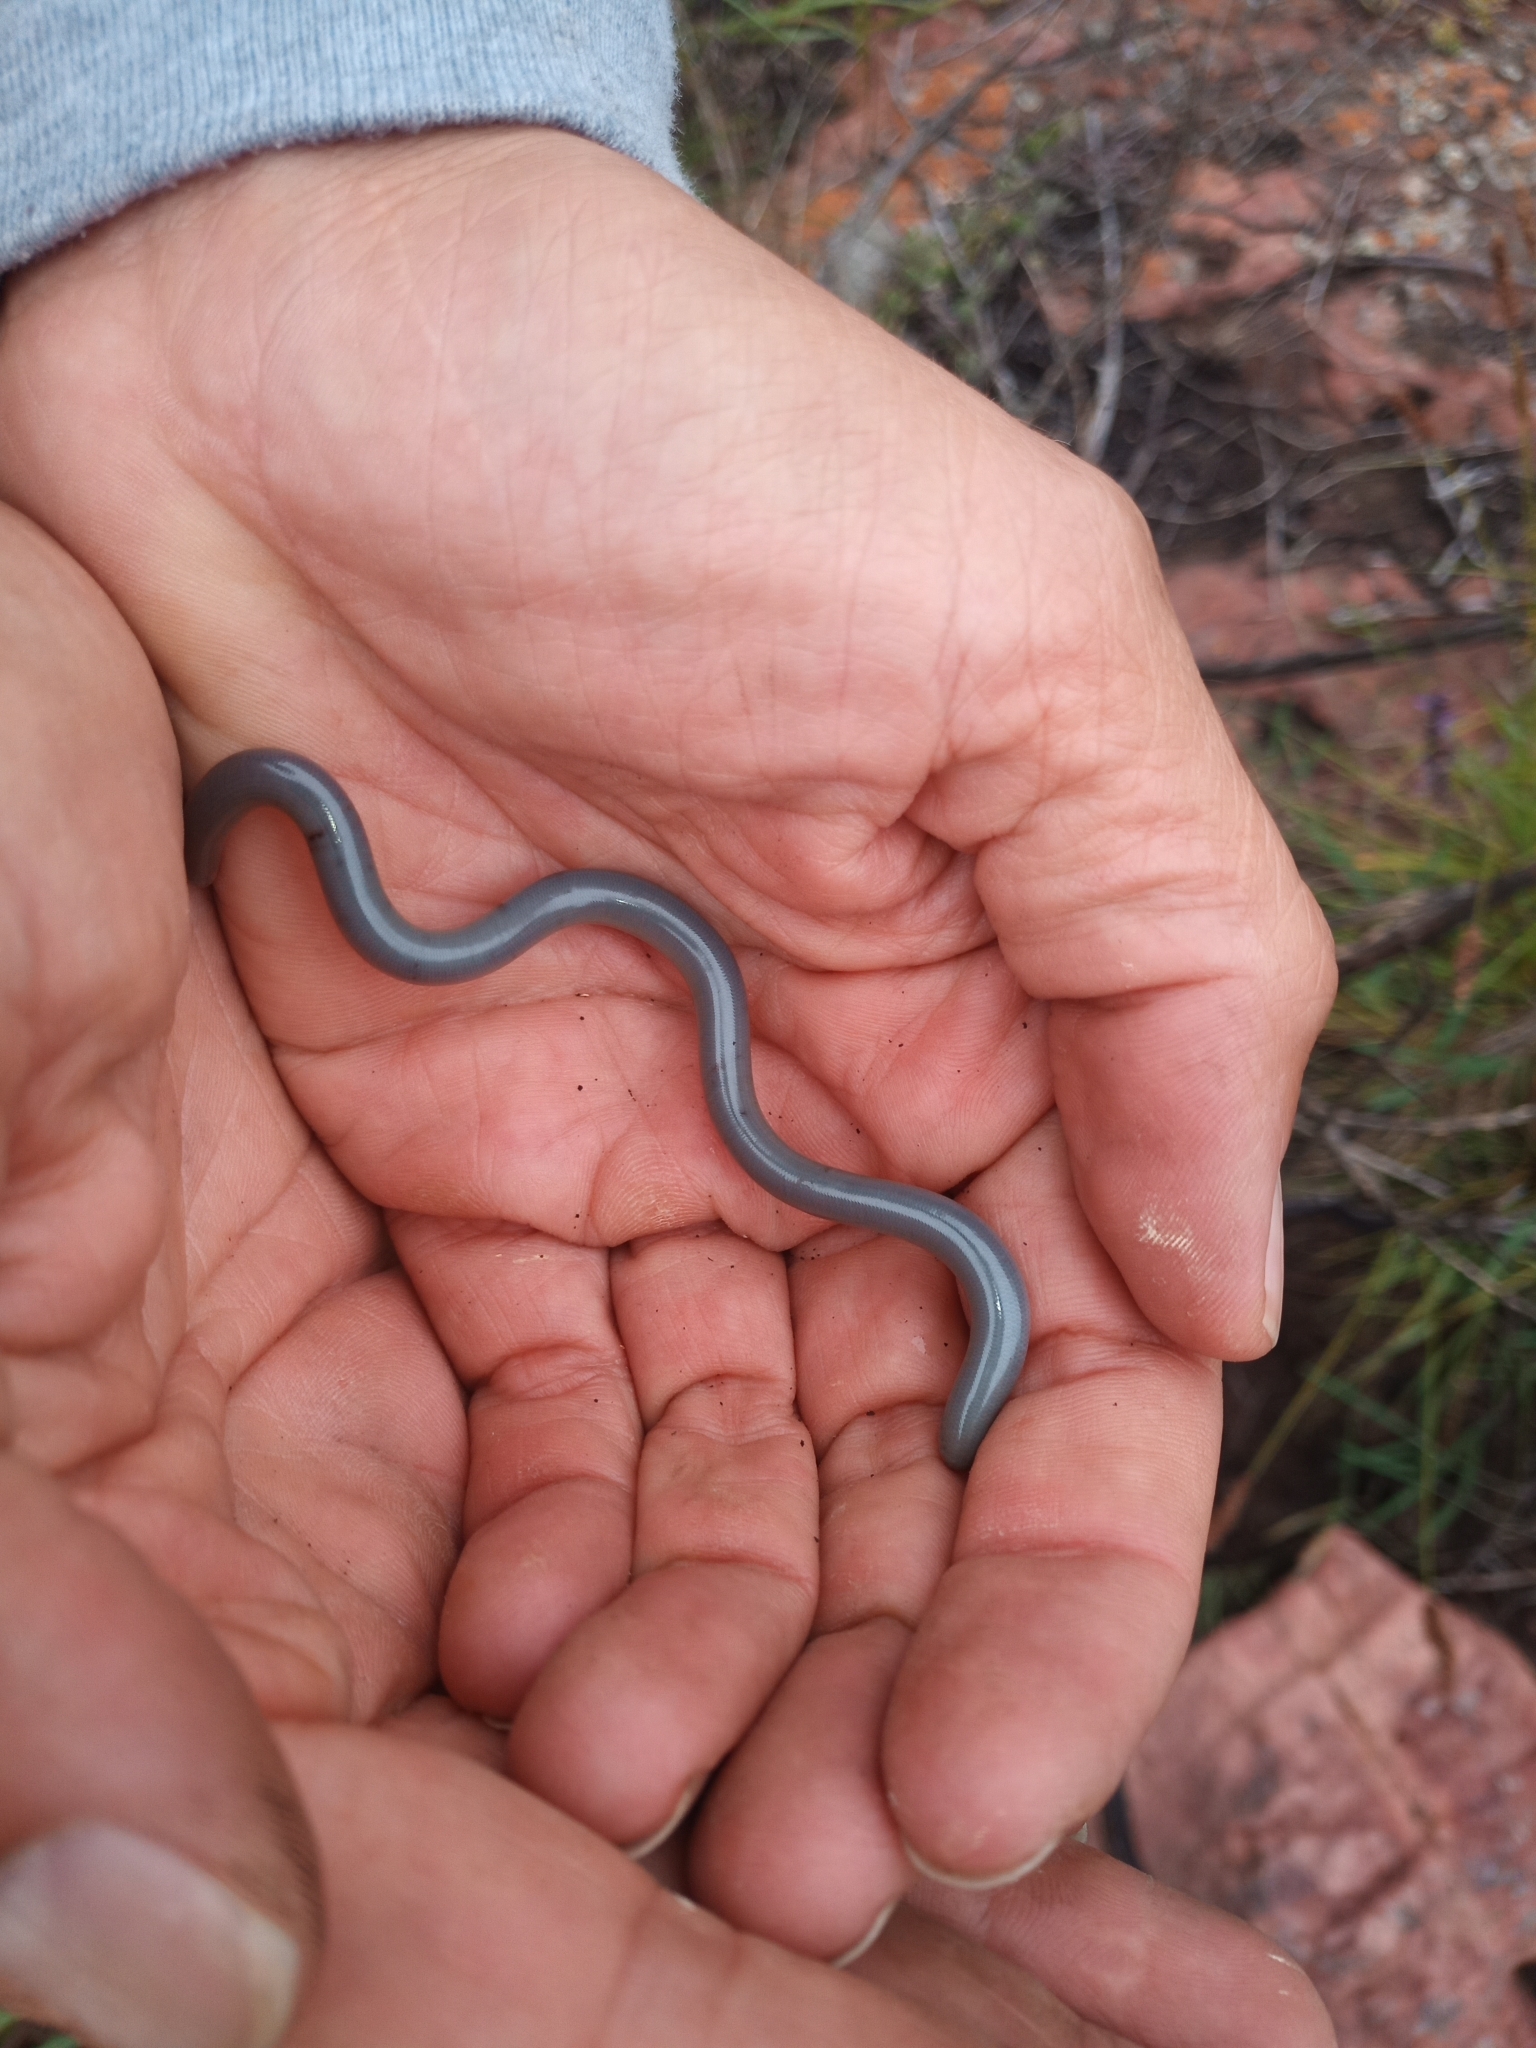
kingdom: Animalia
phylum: Chordata
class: Squamata
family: Typhlopidae
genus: Afrotyphlops
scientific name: Afrotyphlops bibronii
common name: Bibron's blind snake
